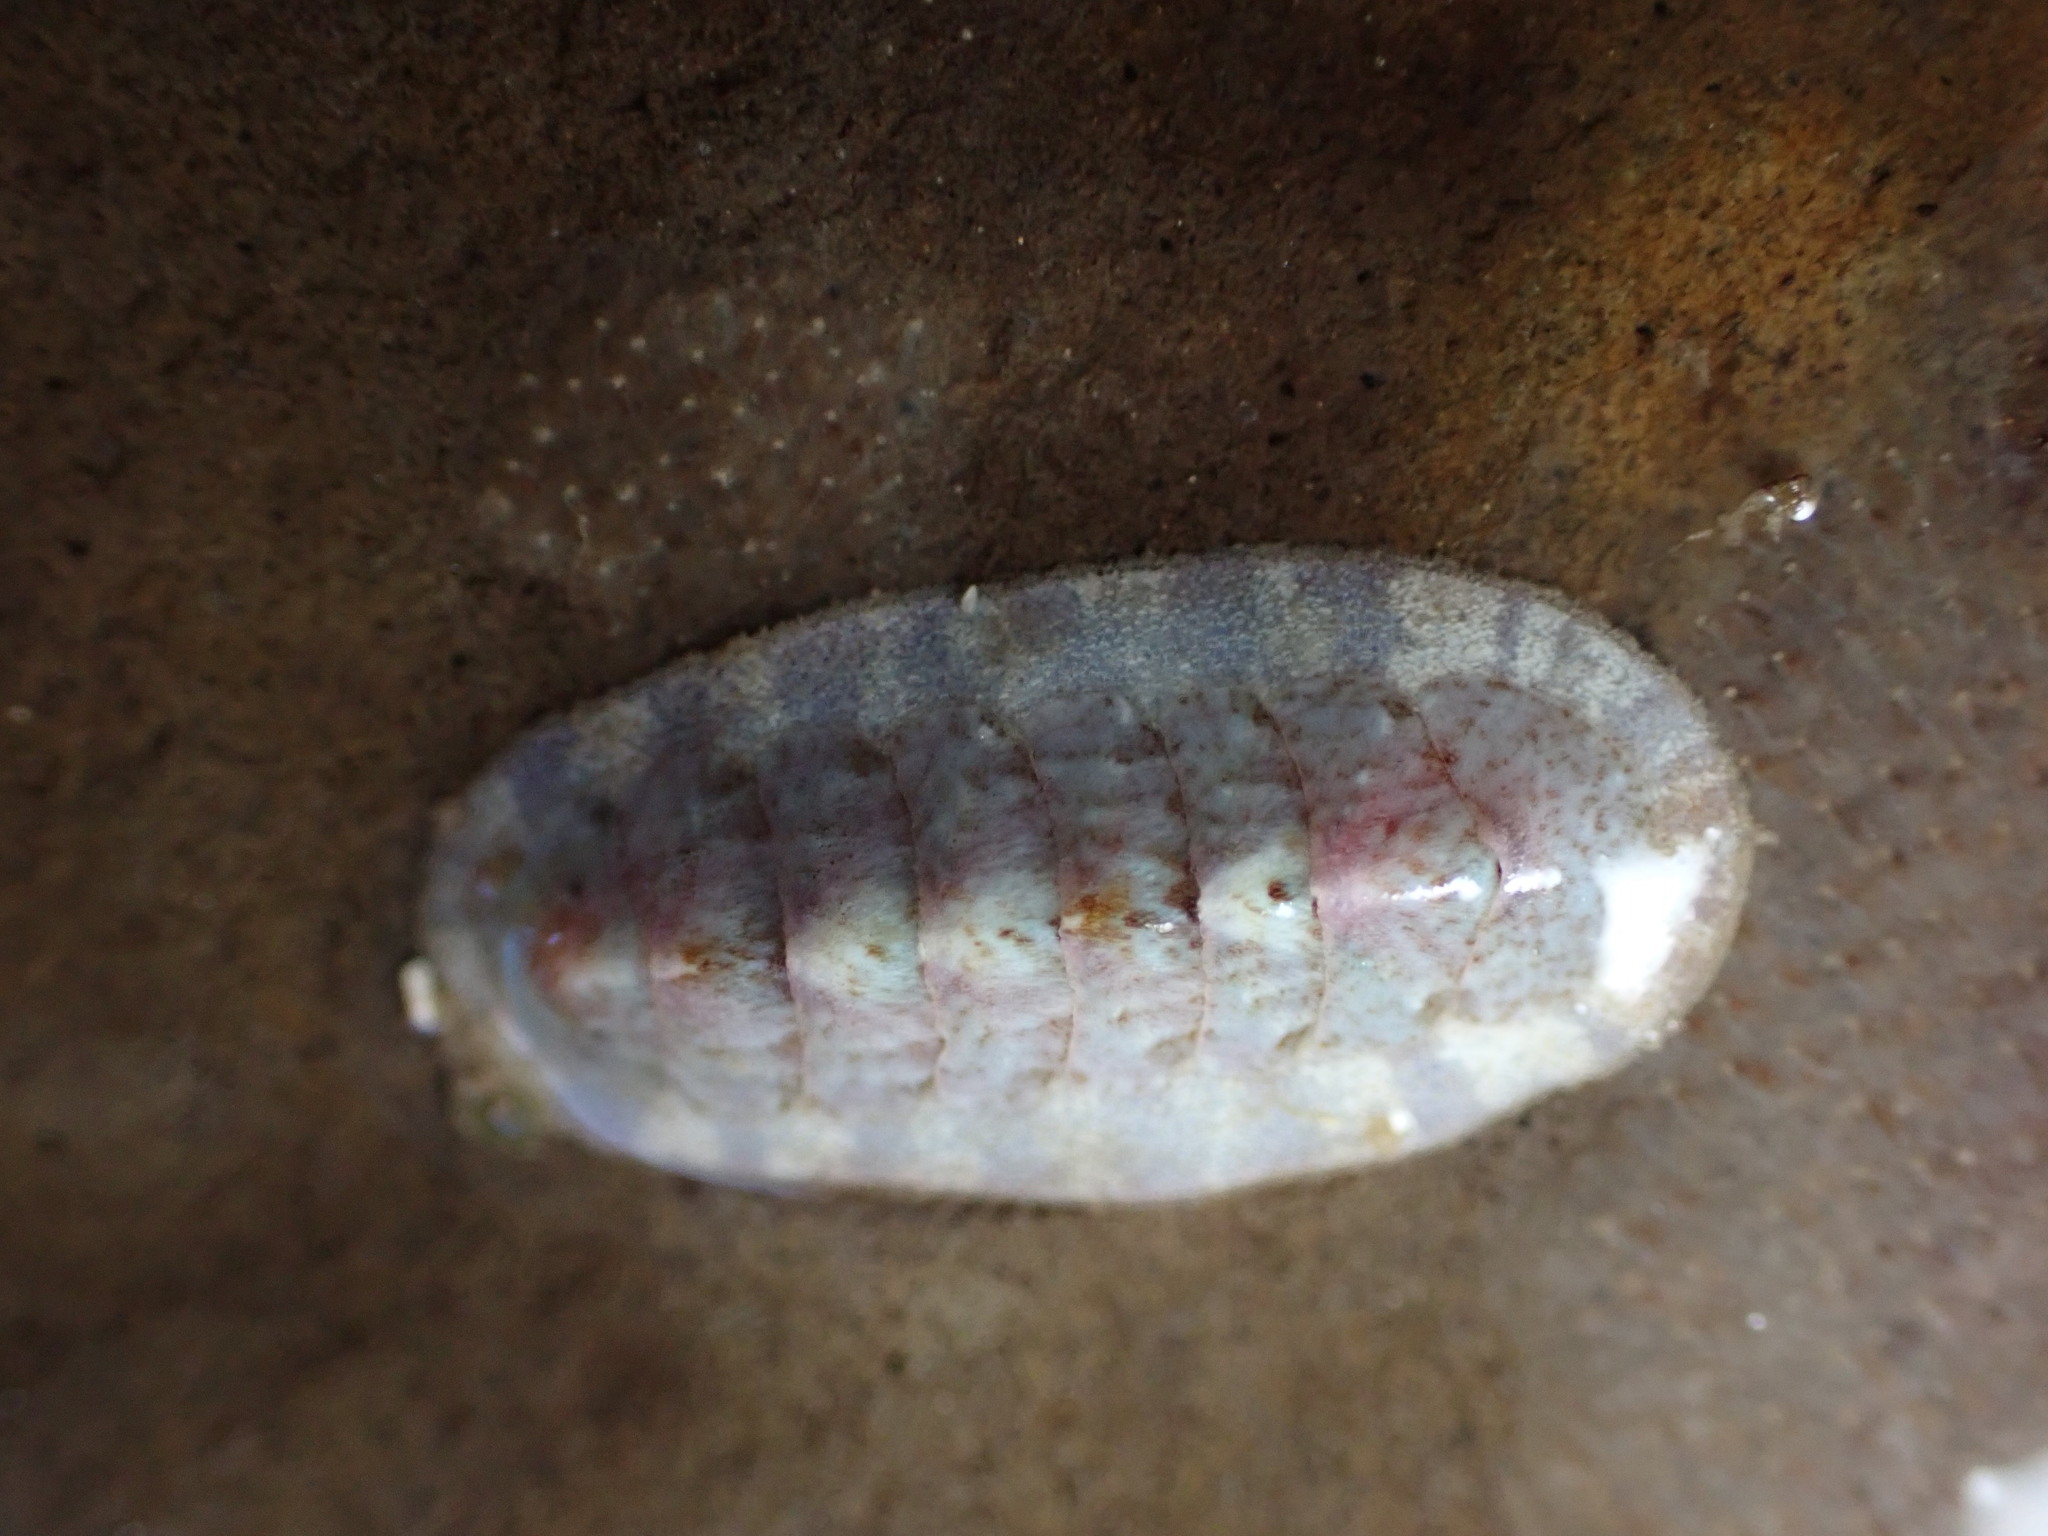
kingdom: Animalia
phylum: Mollusca
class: Polyplacophora
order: Chitonida
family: Ischnochitonidae
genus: Stenoplax
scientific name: Stenoplax heathiana
